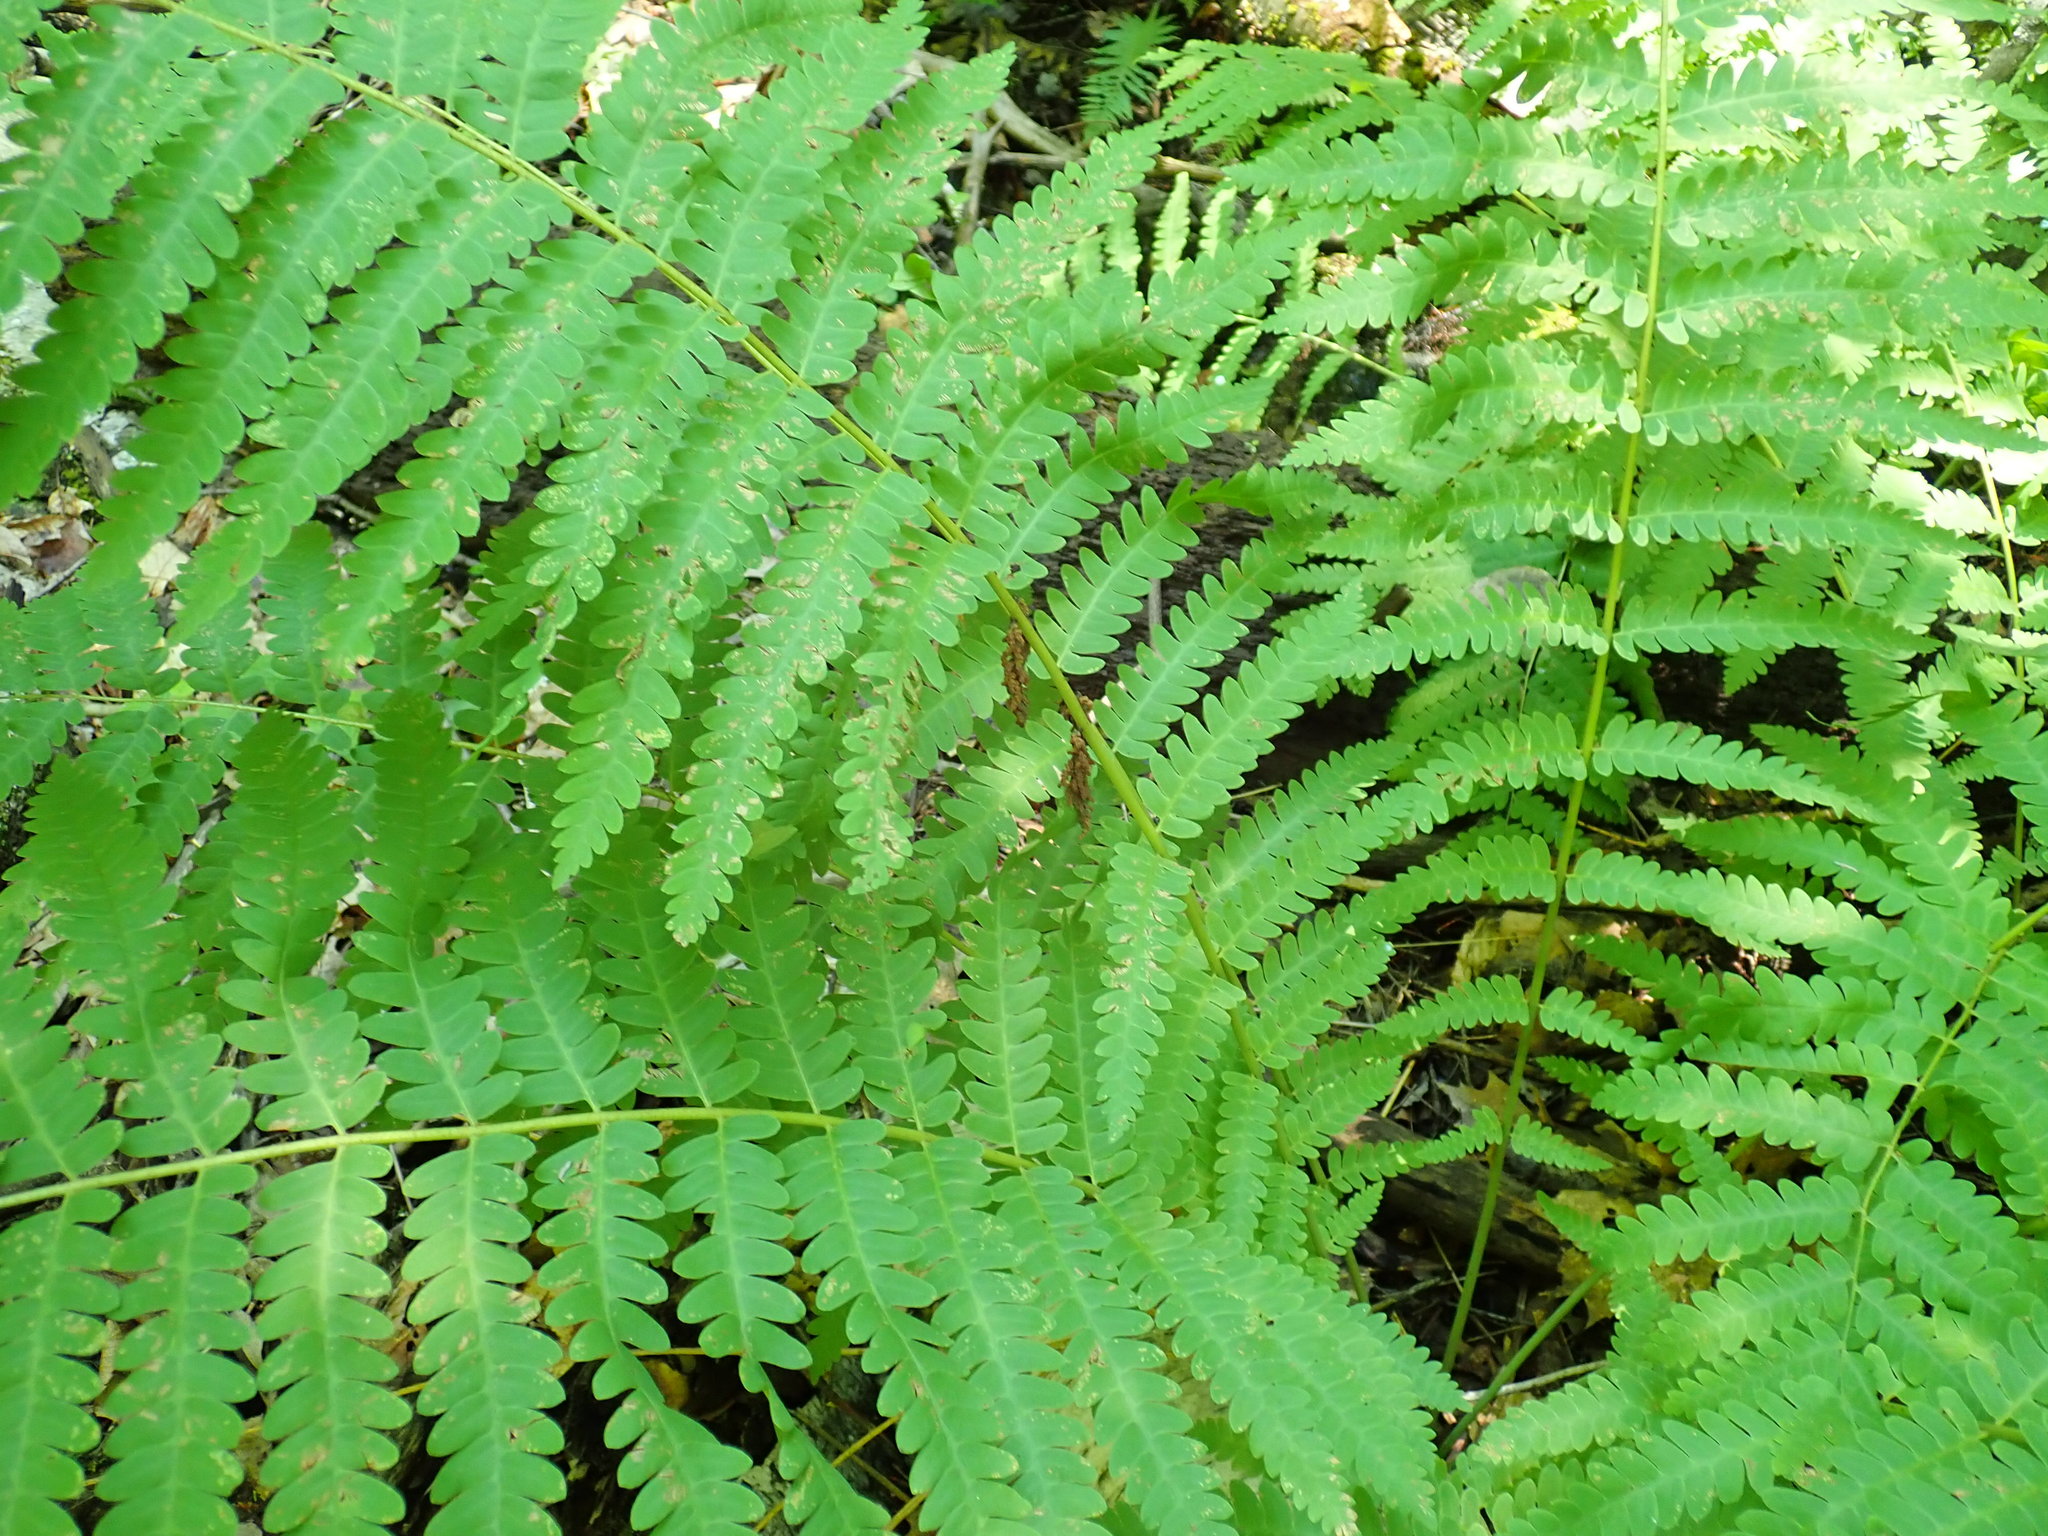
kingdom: Plantae
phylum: Tracheophyta
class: Polypodiopsida
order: Osmundales
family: Osmundaceae
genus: Claytosmunda
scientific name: Claytosmunda claytoniana
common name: Clayton's fern
